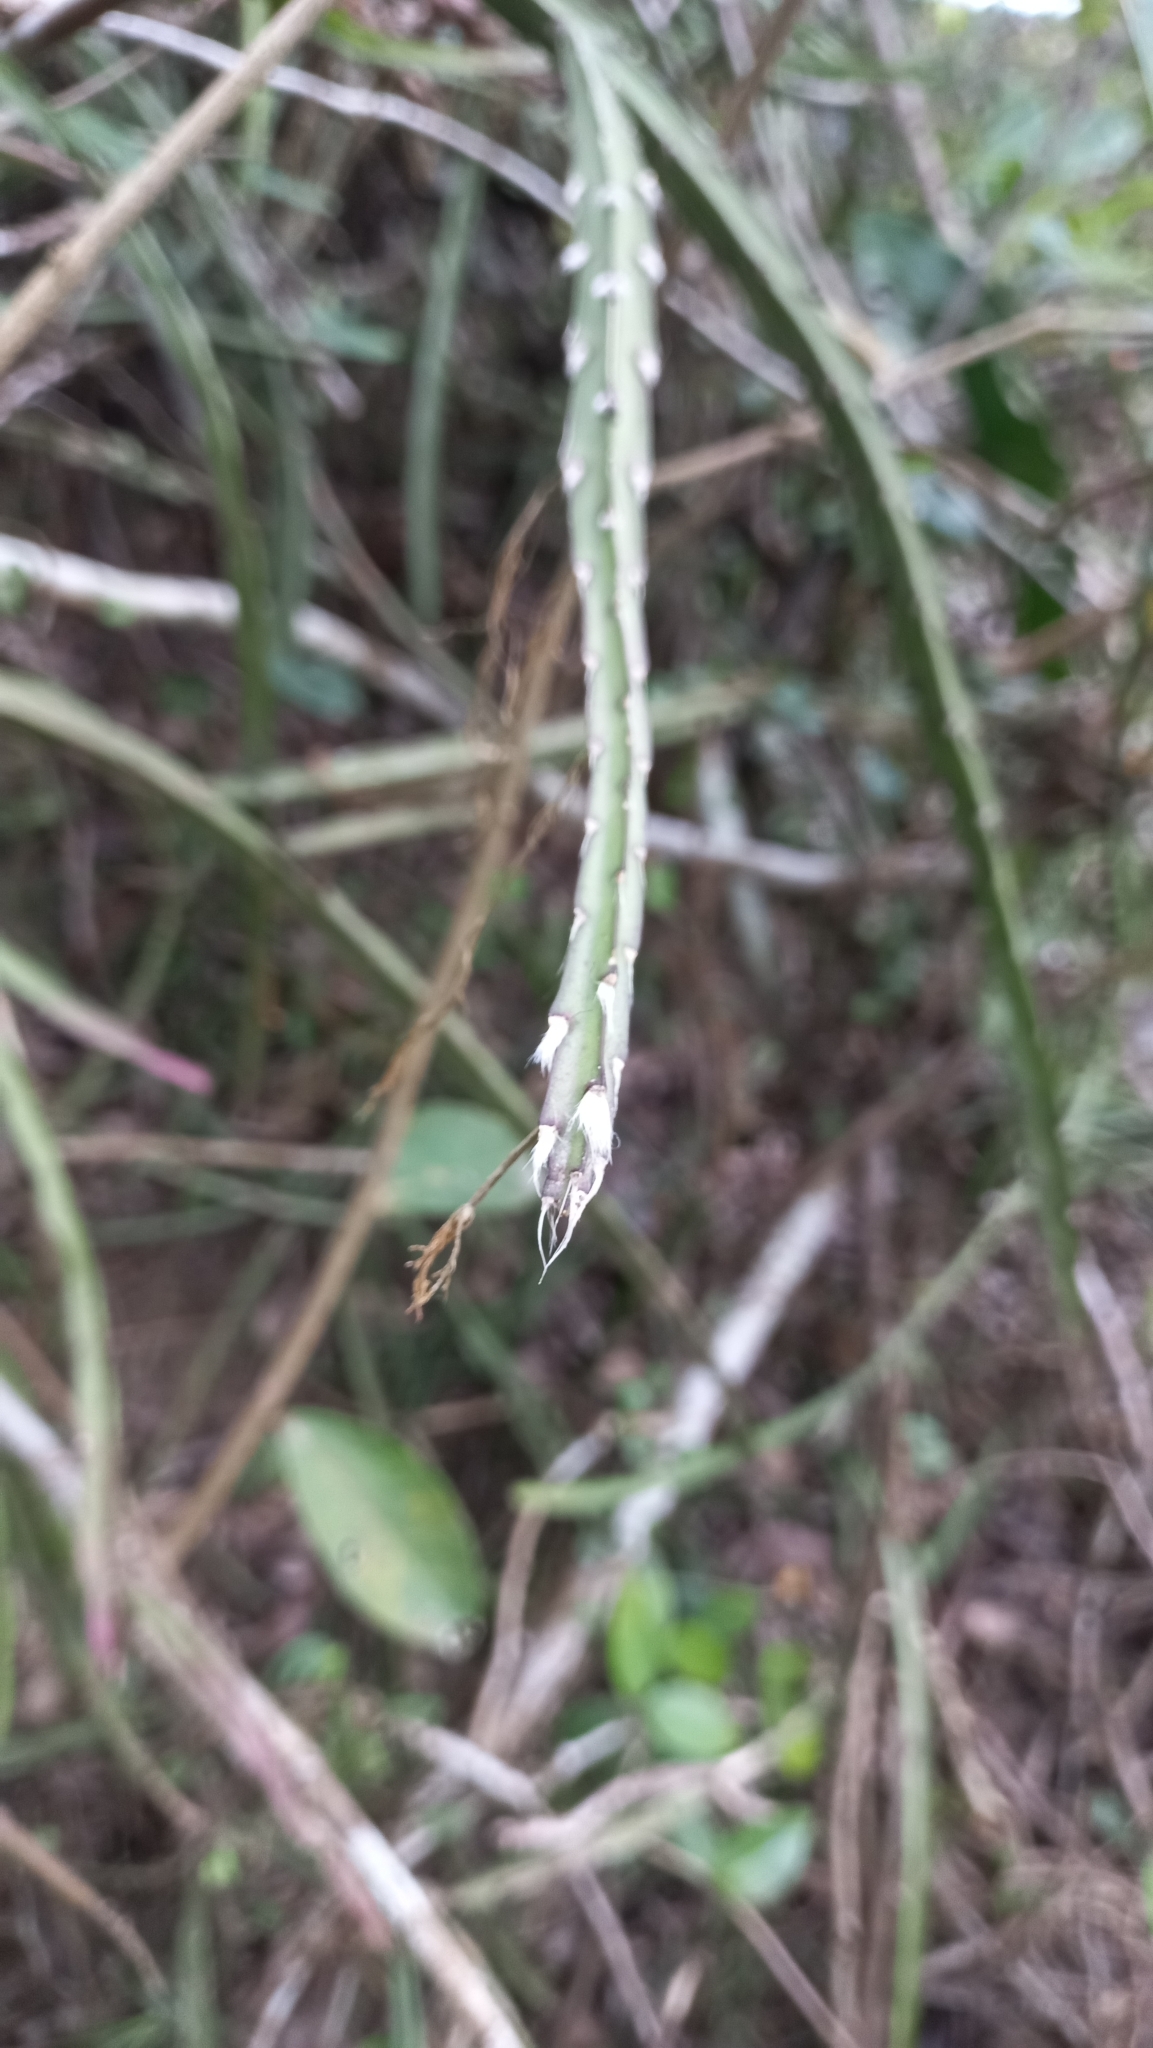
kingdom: Plantae
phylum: Tracheophyta
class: Magnoliopsida
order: Caryophyllales
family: Cactaceae
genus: Lepismium
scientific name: Lepismium cruciforme
